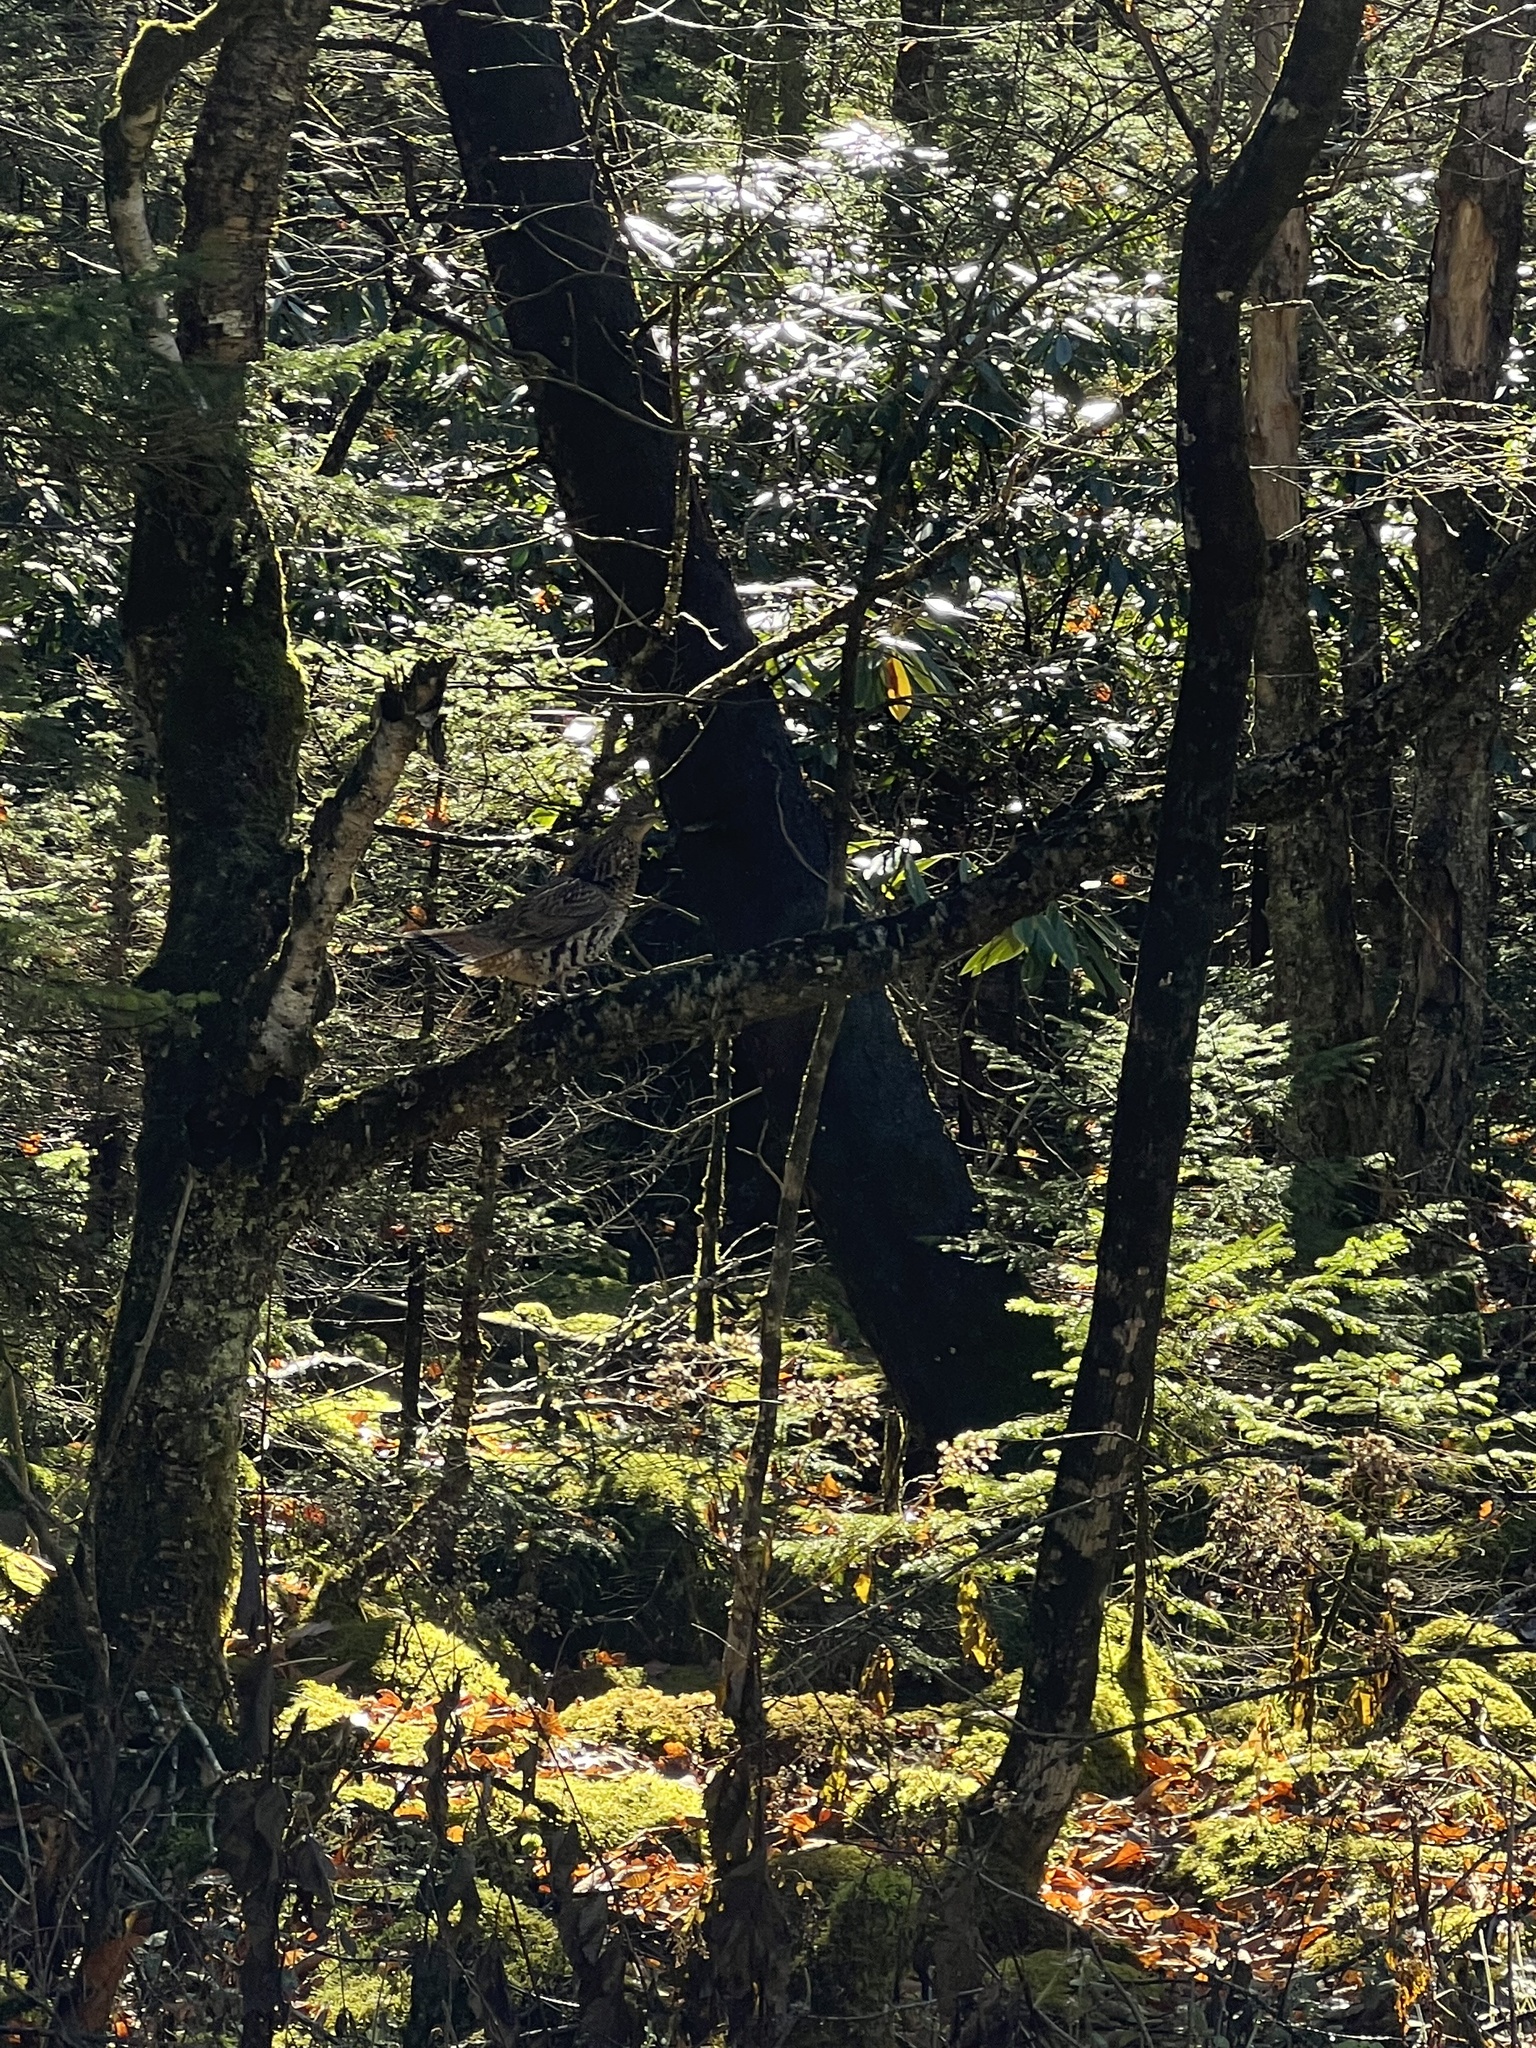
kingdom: Animalia
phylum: Chordata
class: Aves
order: Galliformes
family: Phasianidae
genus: Bonasa
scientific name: Bonasa umbellus
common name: Ruffed grouse
